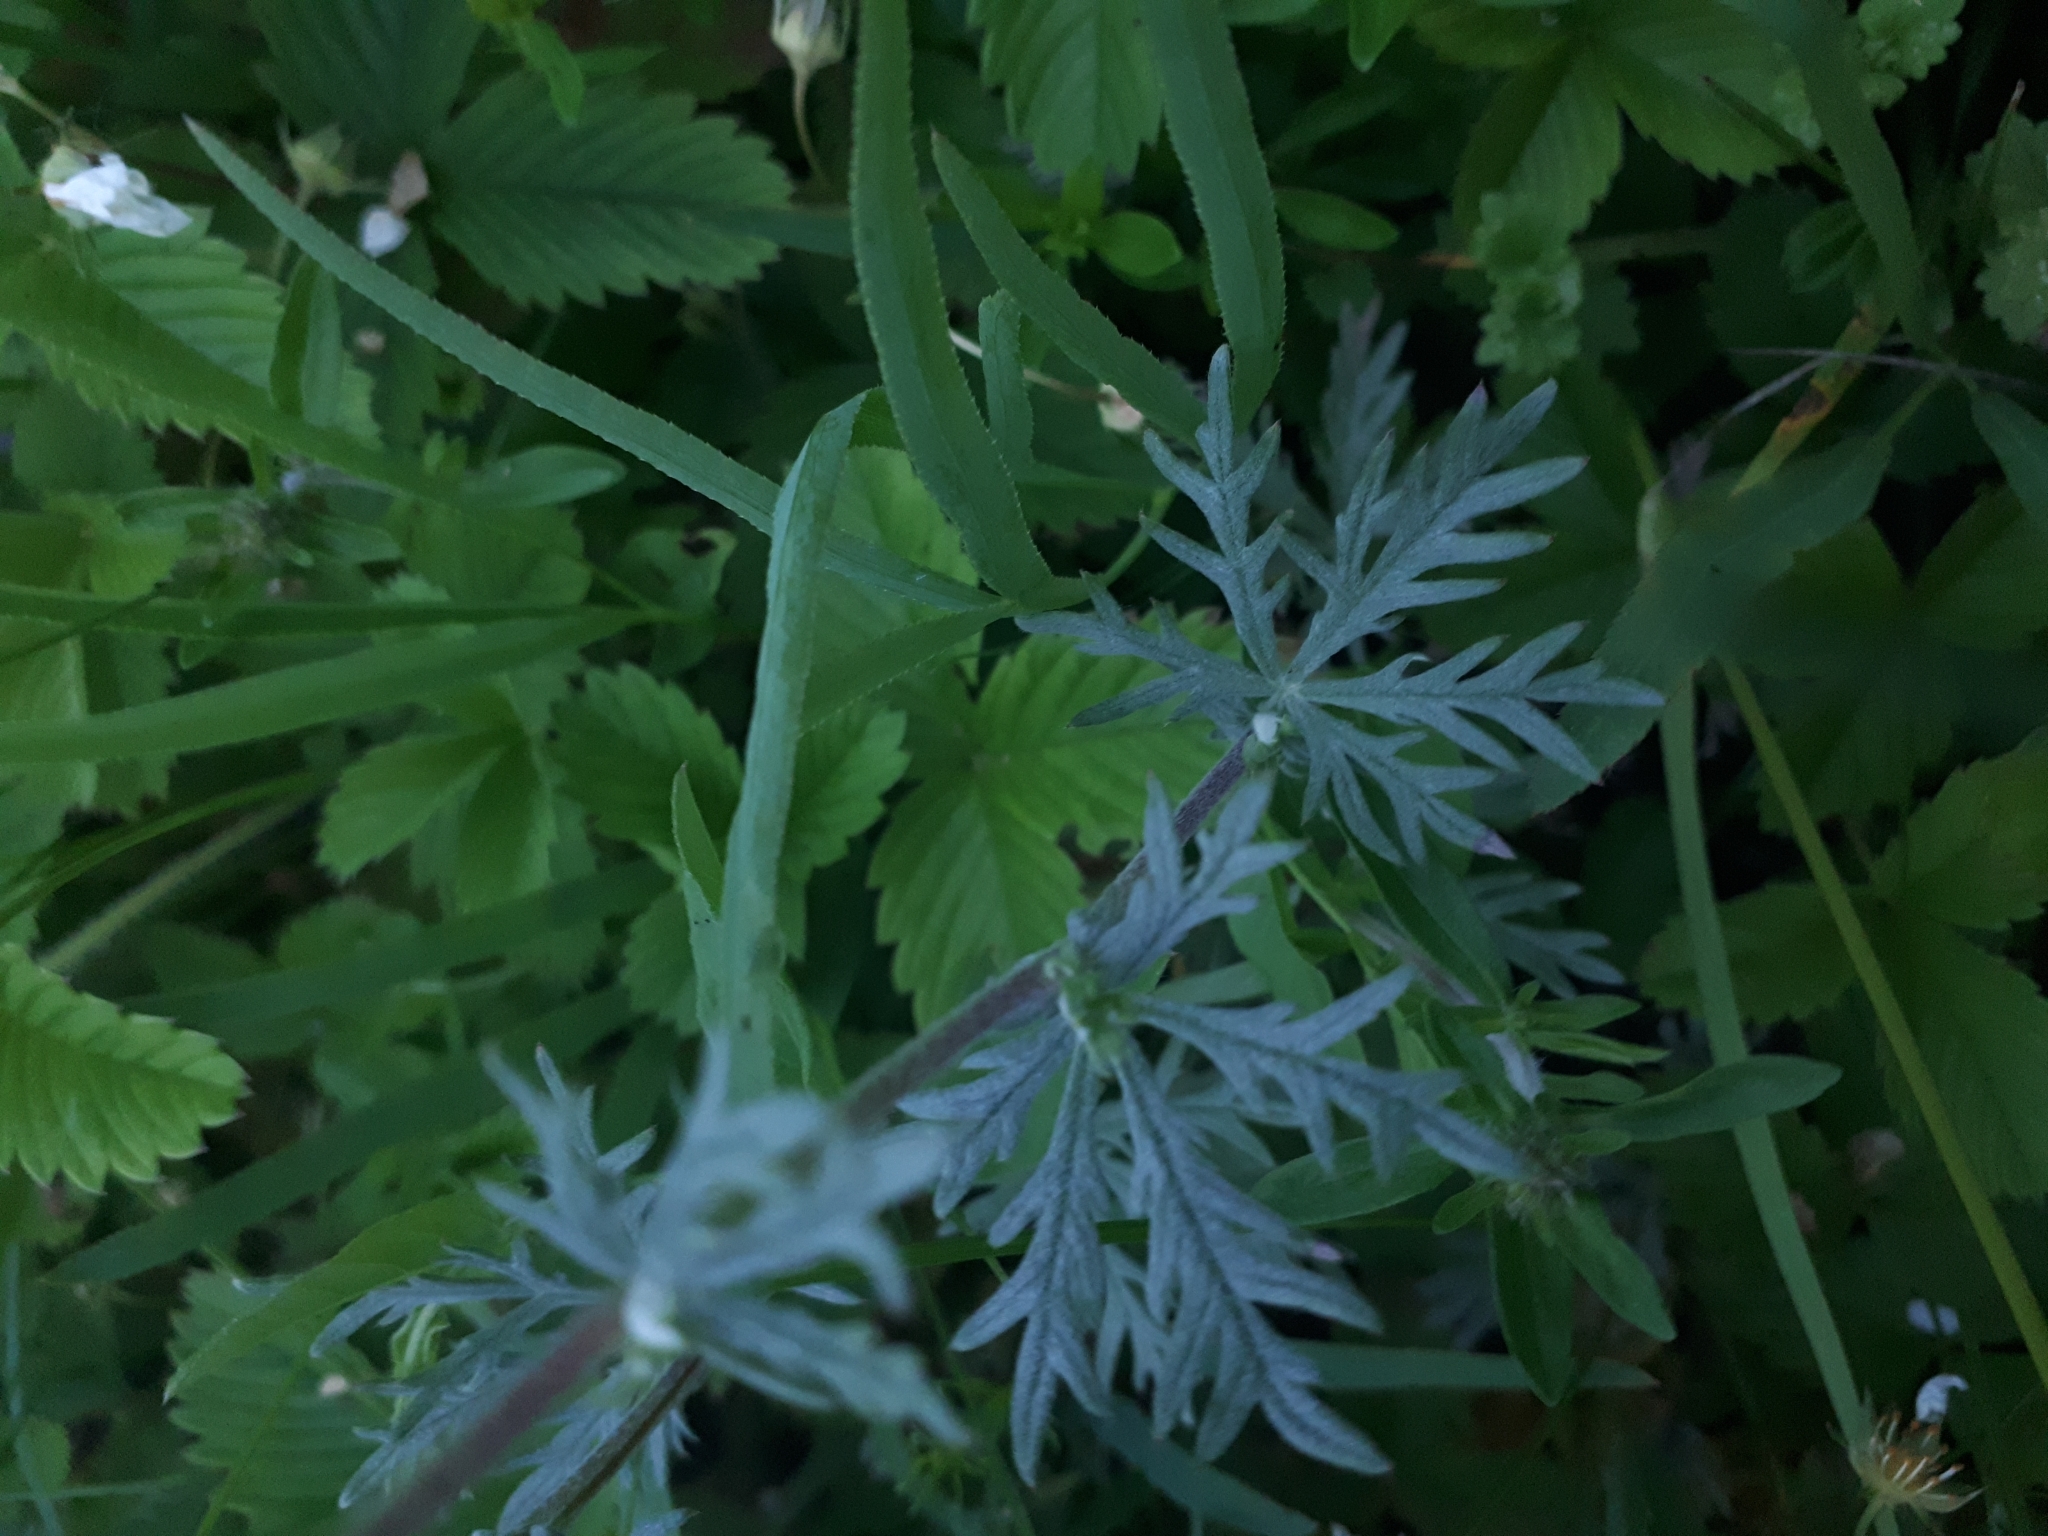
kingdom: Plantae
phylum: Tracheophyta
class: Magnoliopsida
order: Rosales
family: Rosaceae
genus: Potentilla
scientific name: Potentilla argentea
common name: Hoary cinquefoil
